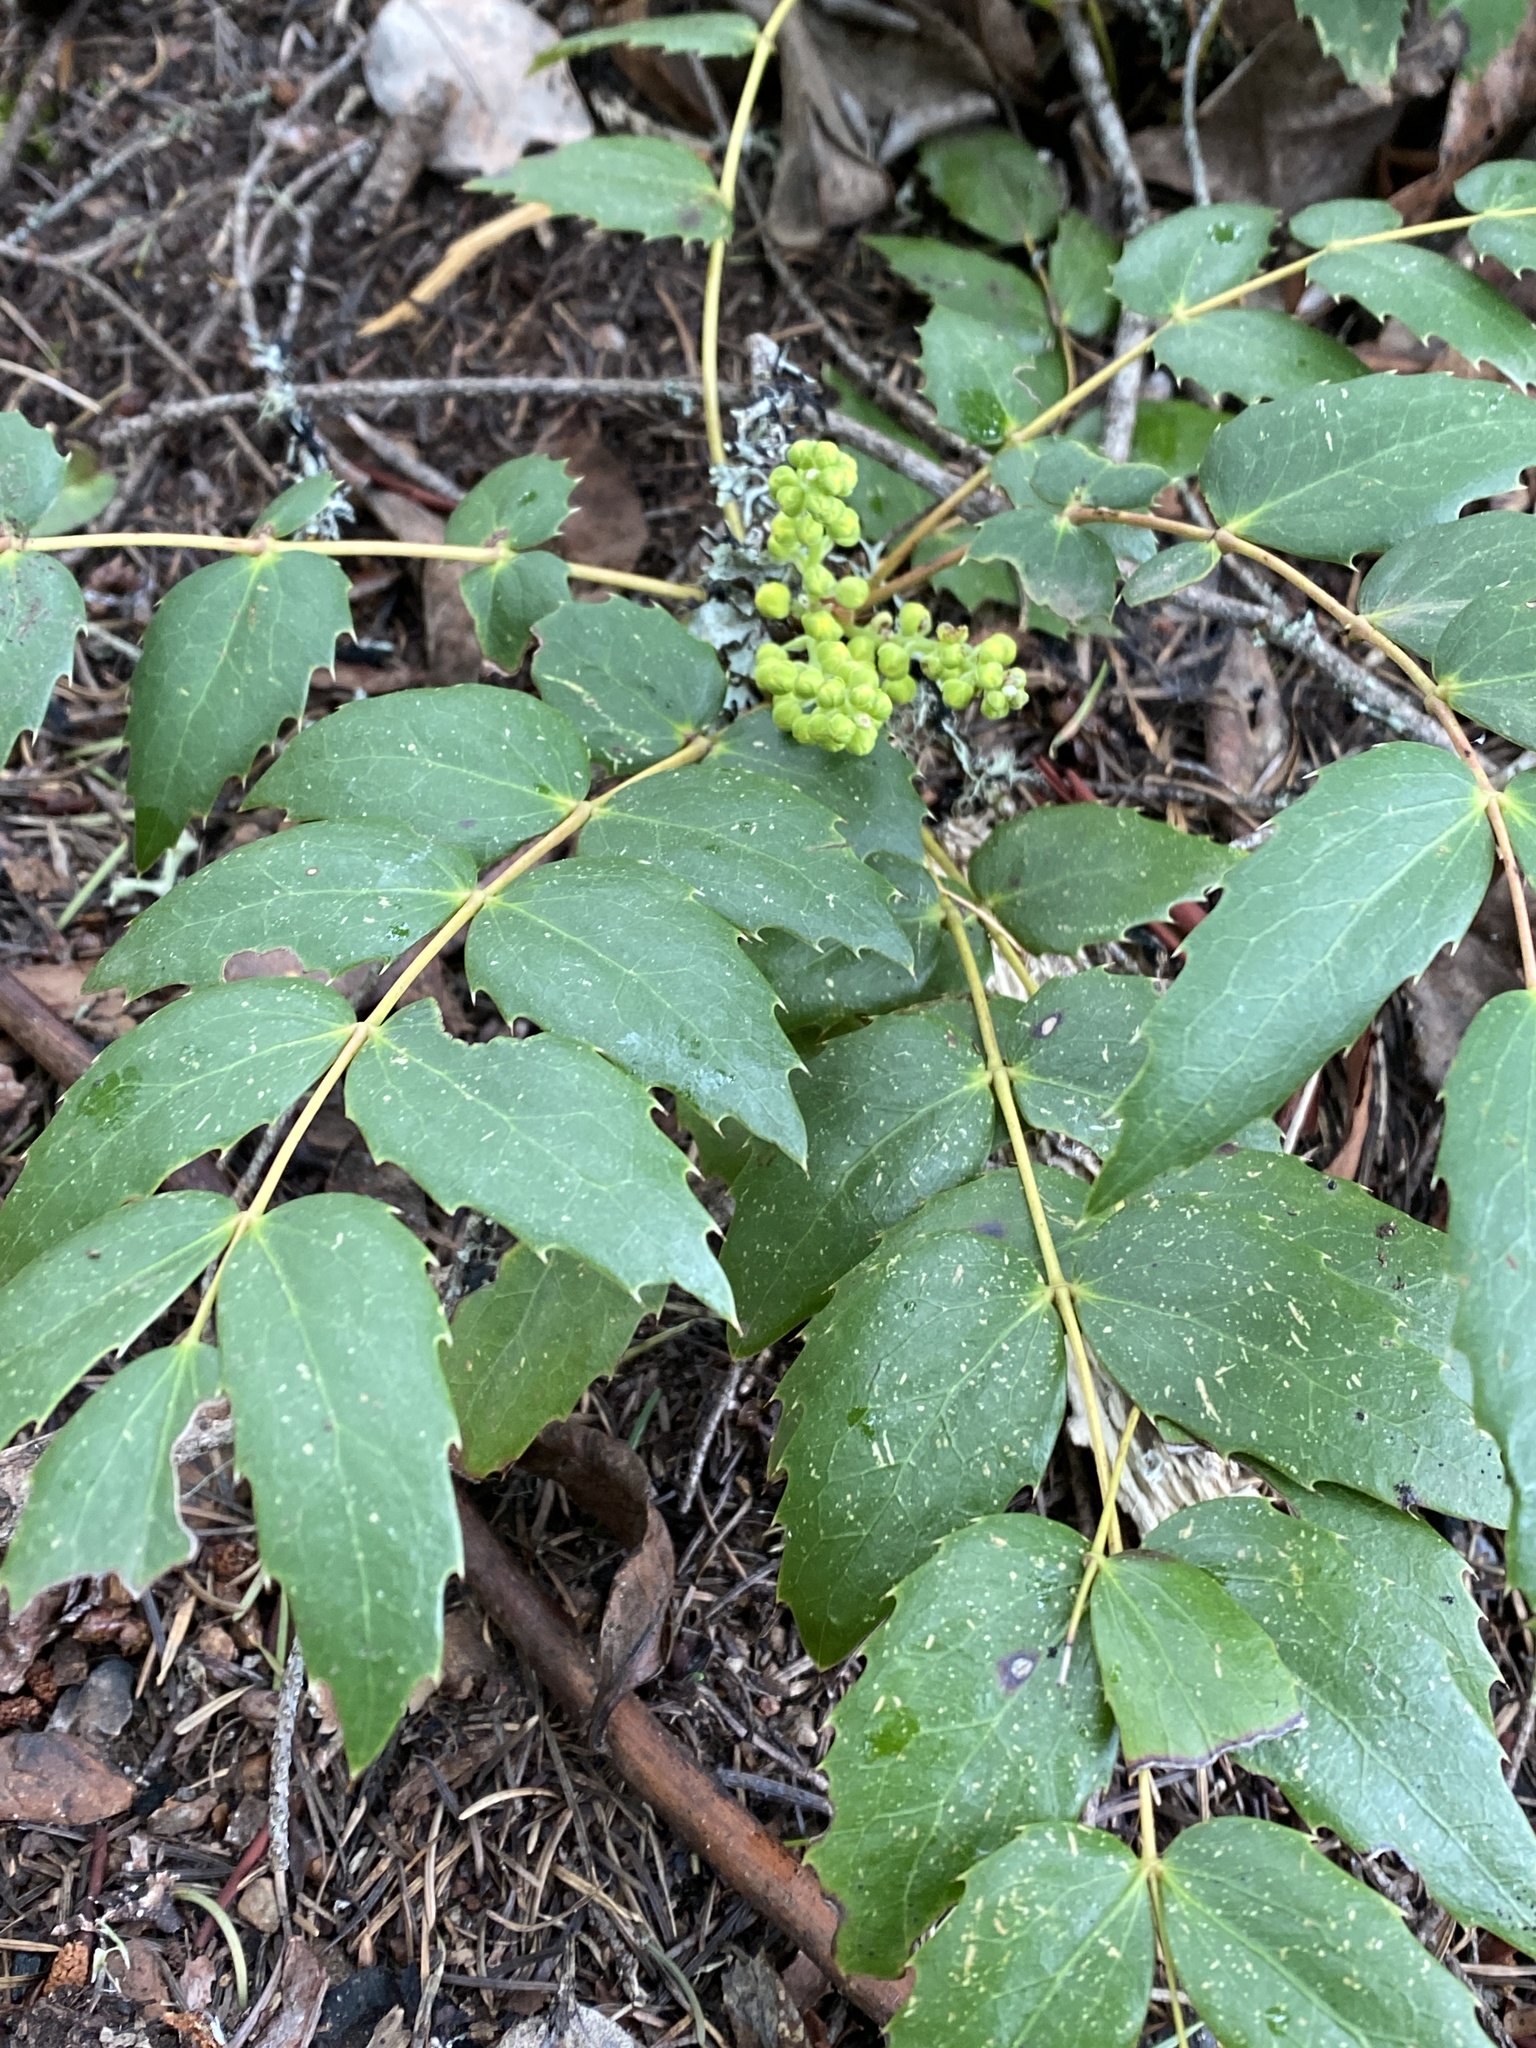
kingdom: Plantae
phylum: Tracheophyta
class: Magnoliopsida
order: Ranunculales
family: Berberidaceae
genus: Mahonia
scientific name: Mahonia nervosa
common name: Cascade oregon-grape
